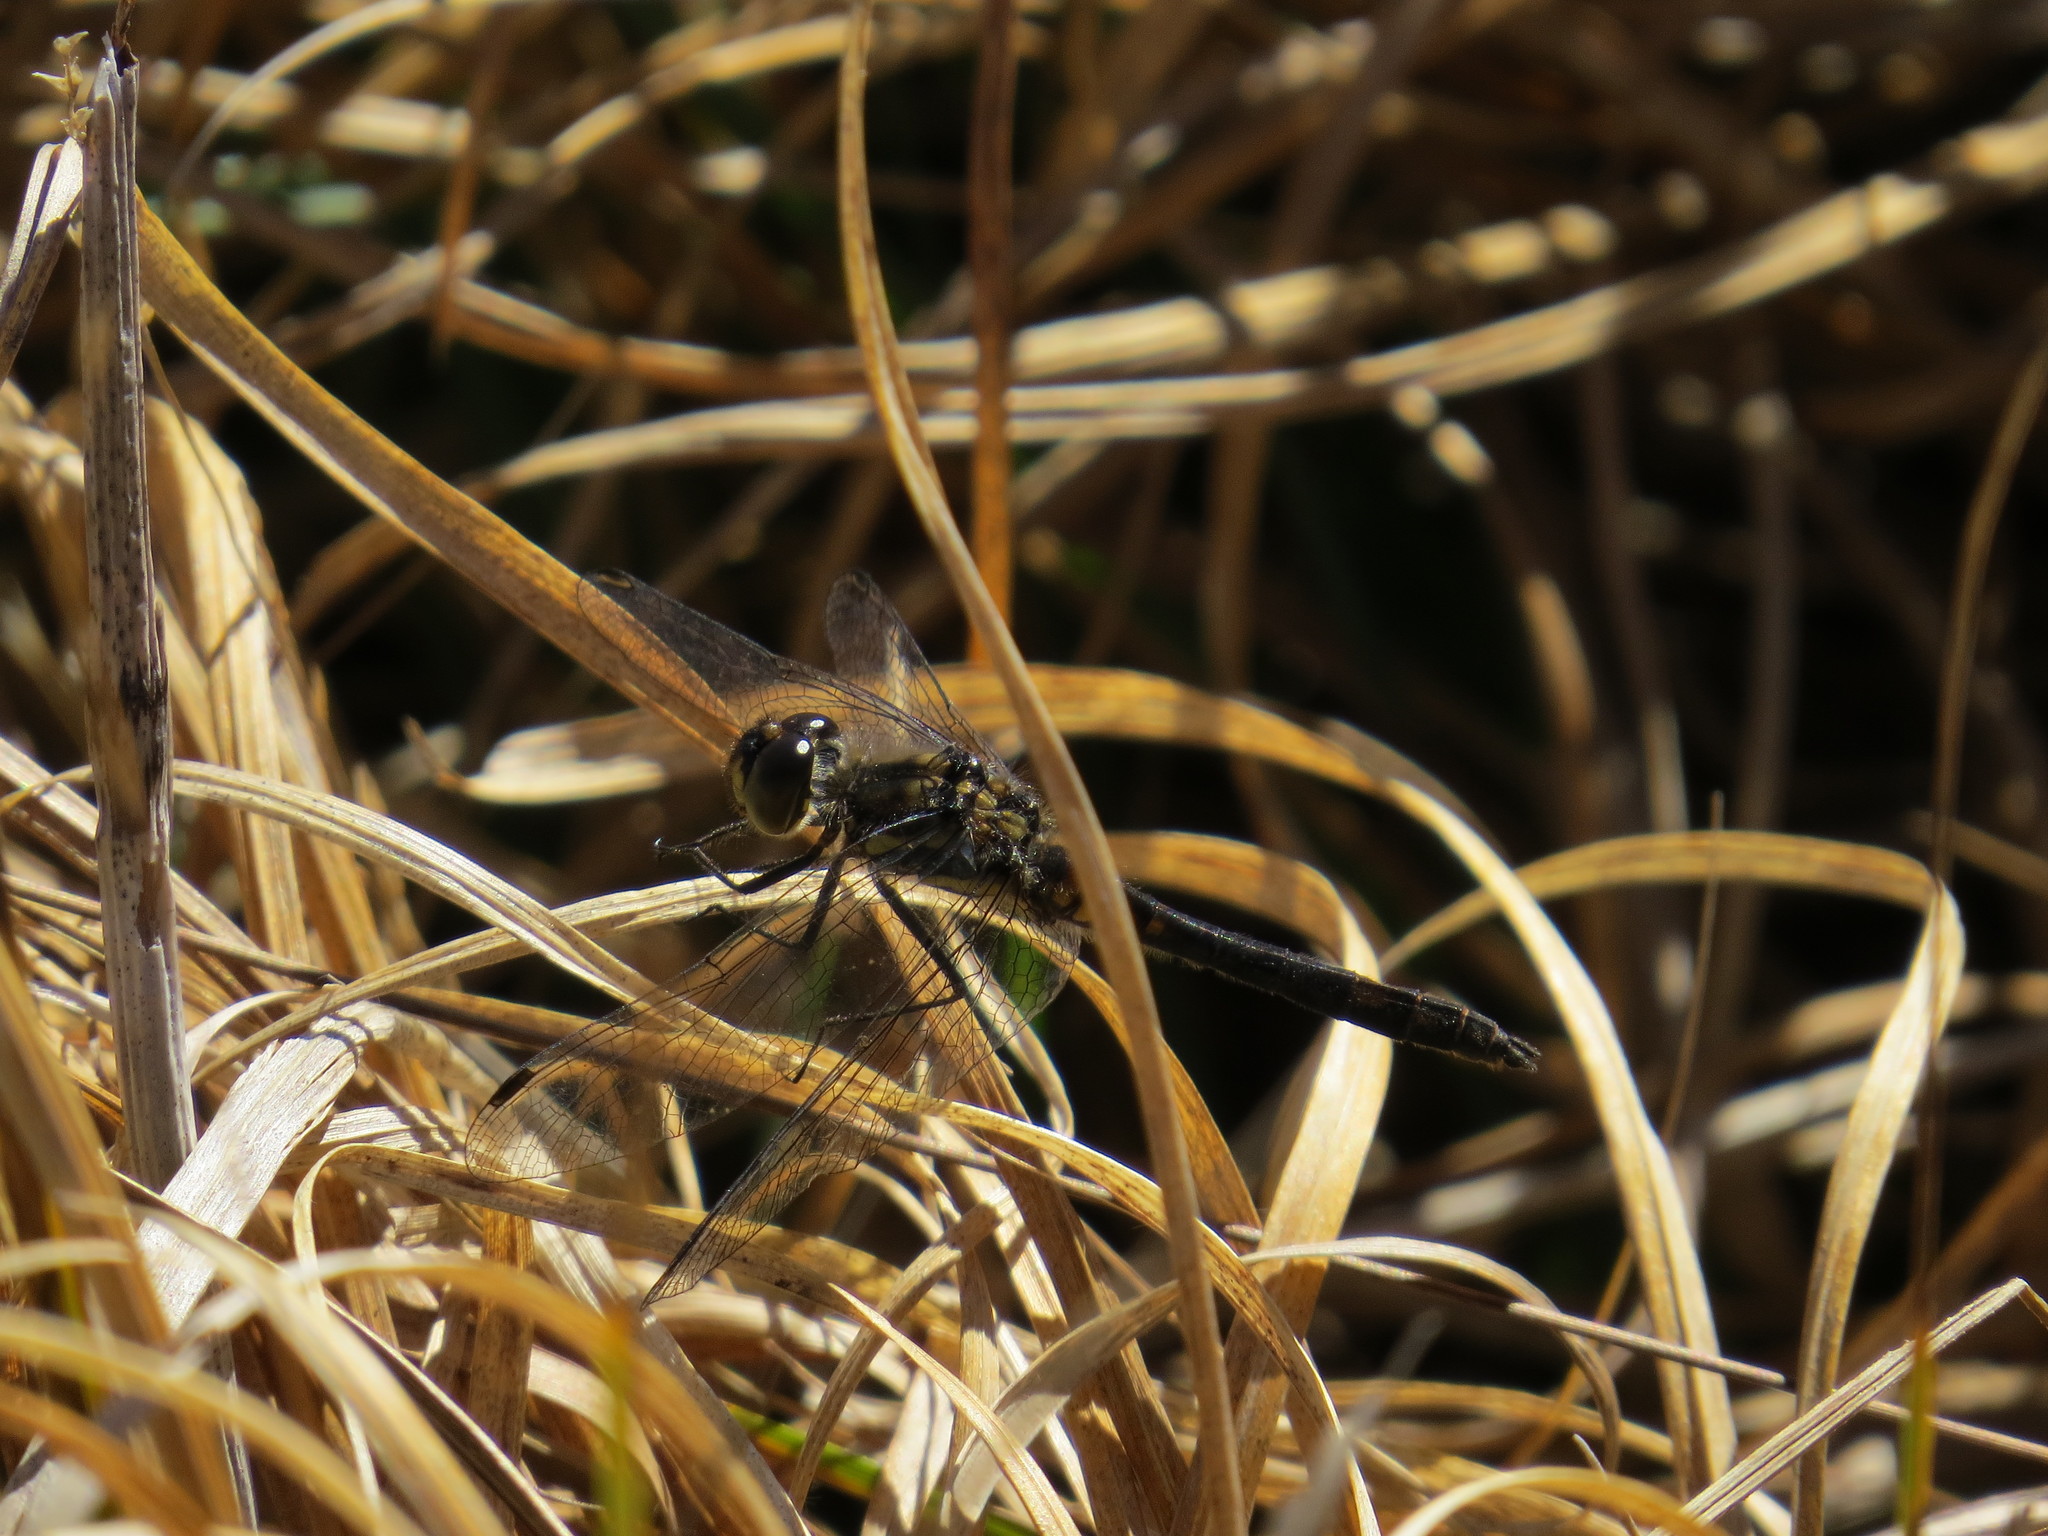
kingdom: Animalia
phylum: Arthropoda
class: Insecta
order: Odonata
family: Libellulidae
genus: Sympetrum
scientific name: Sympetrum danae
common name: Black darter
